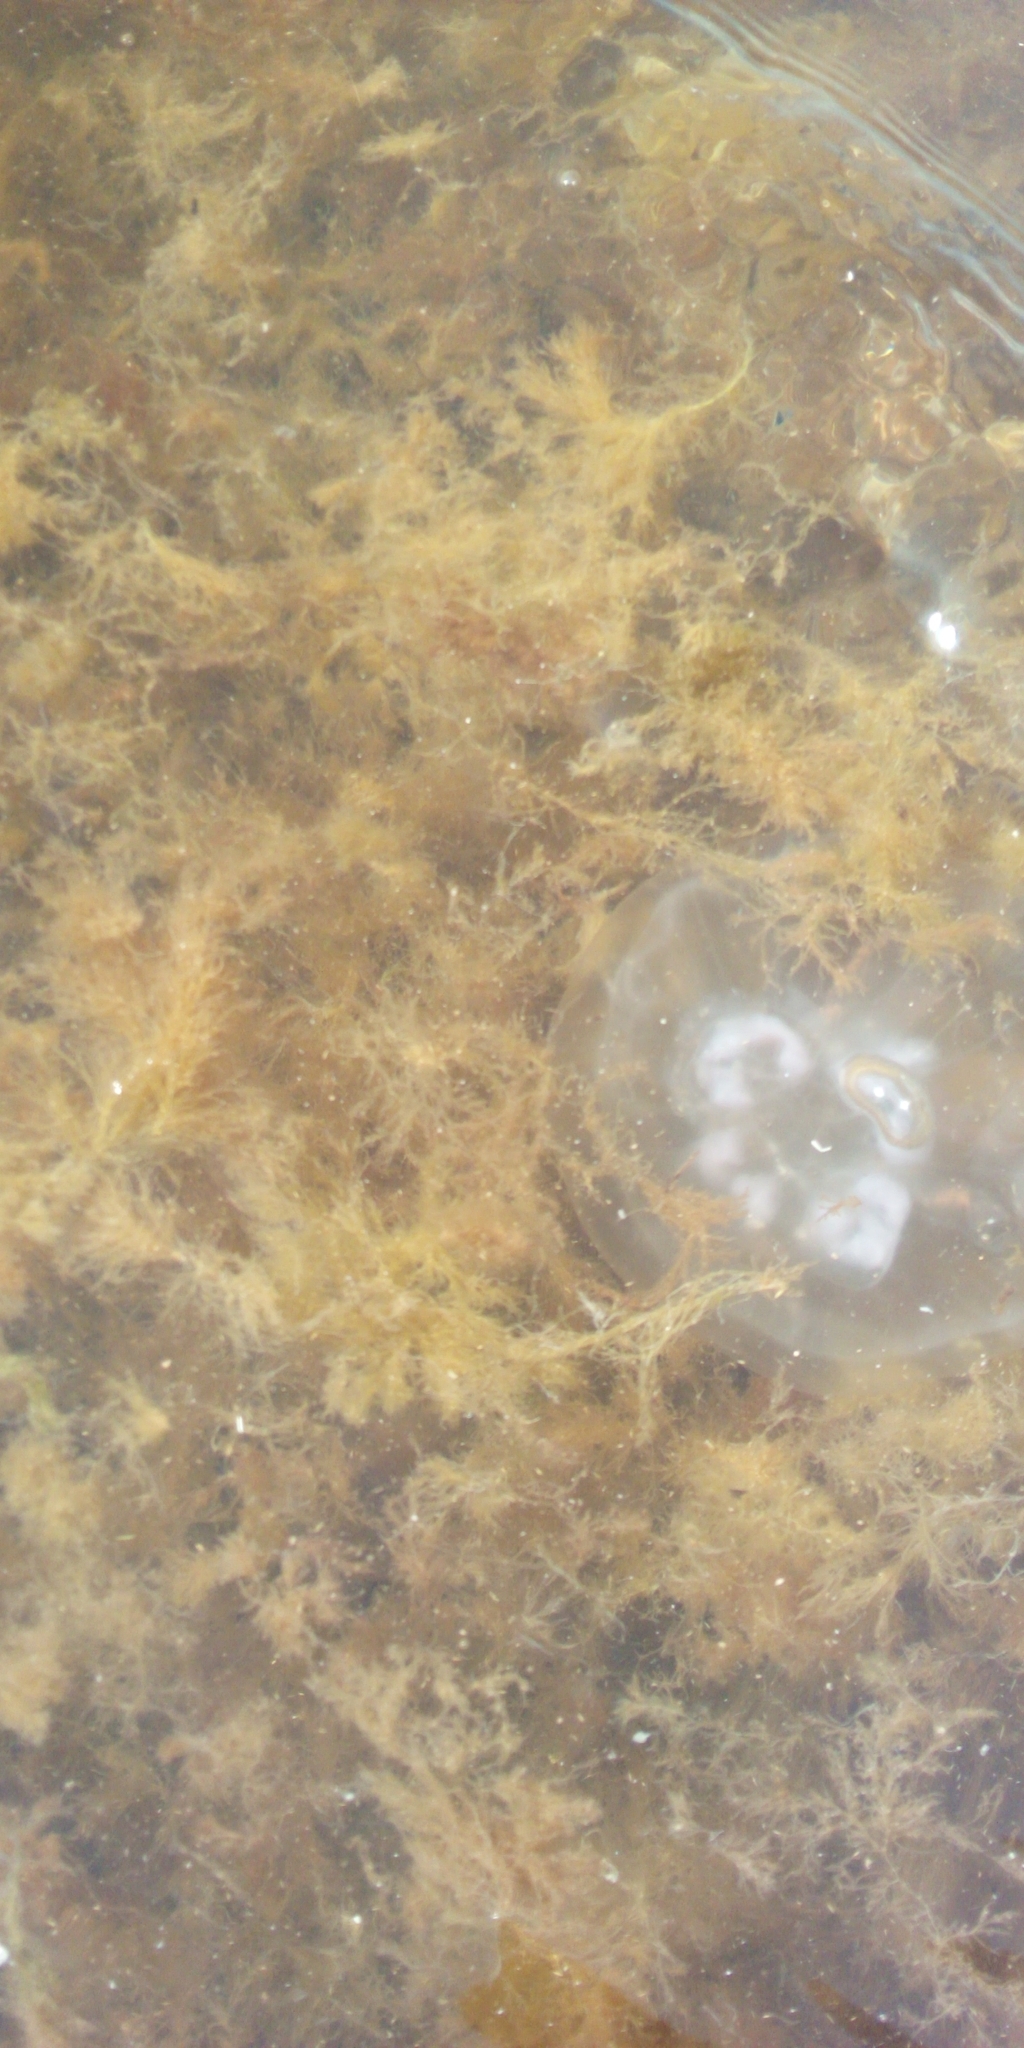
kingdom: Animalia
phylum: Cnidaria
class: Scyphozoa
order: Semaeostomeae
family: Ulmaridae
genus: Aurelia
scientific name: Aurelia aurita
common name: Moon jellyfish
